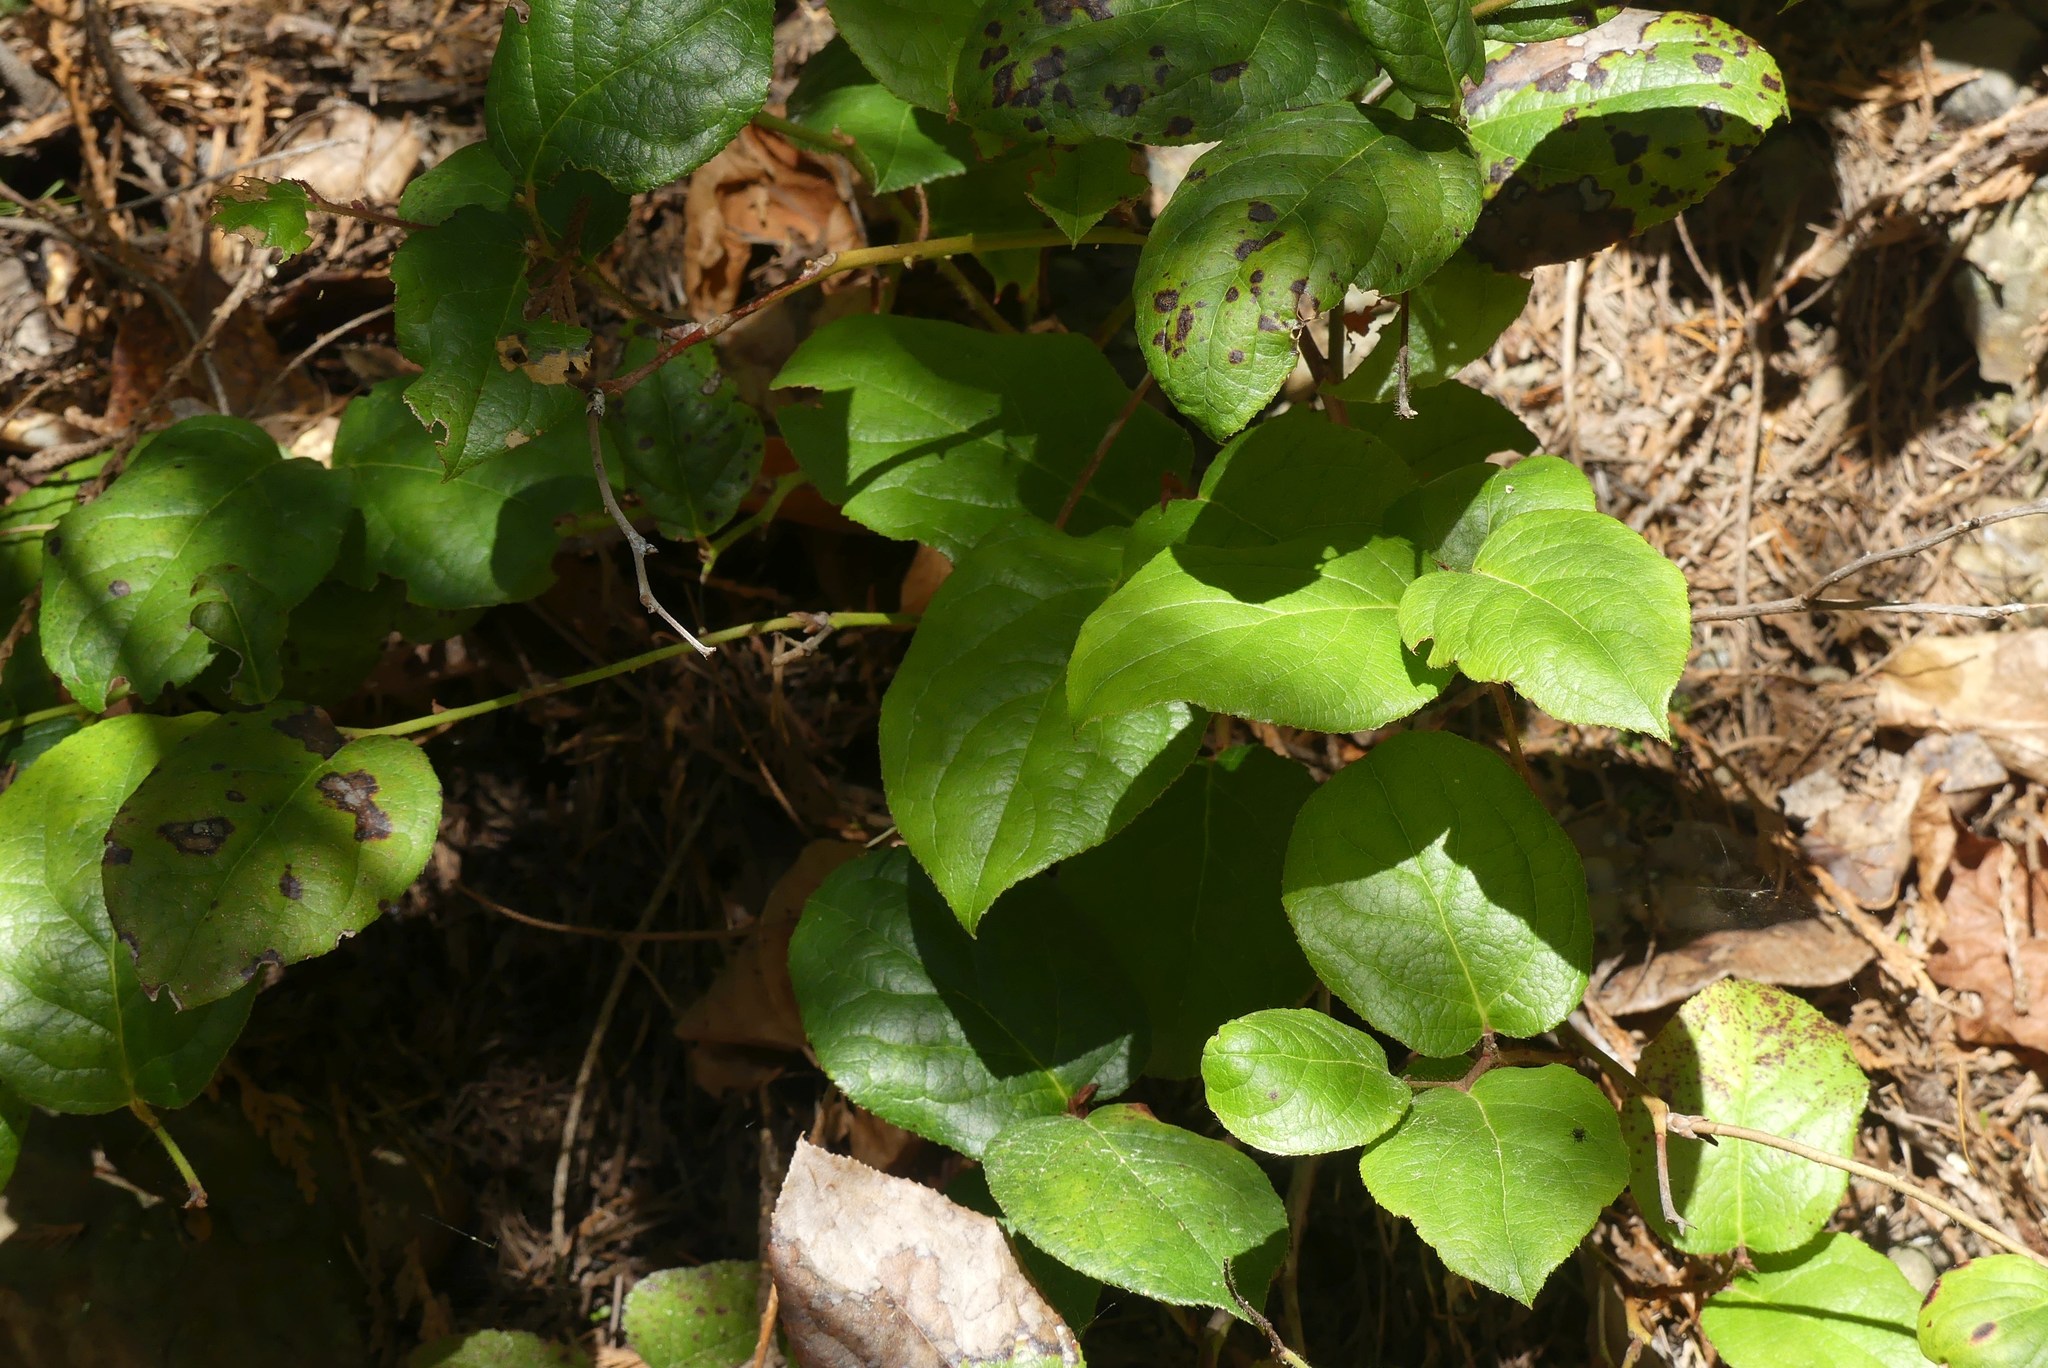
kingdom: Plantae
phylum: Tracheophyta
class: Magnoliopsida
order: Ericales
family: Ericaceae
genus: Gaultheria
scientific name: Gaultheria shallon
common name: Shallon
